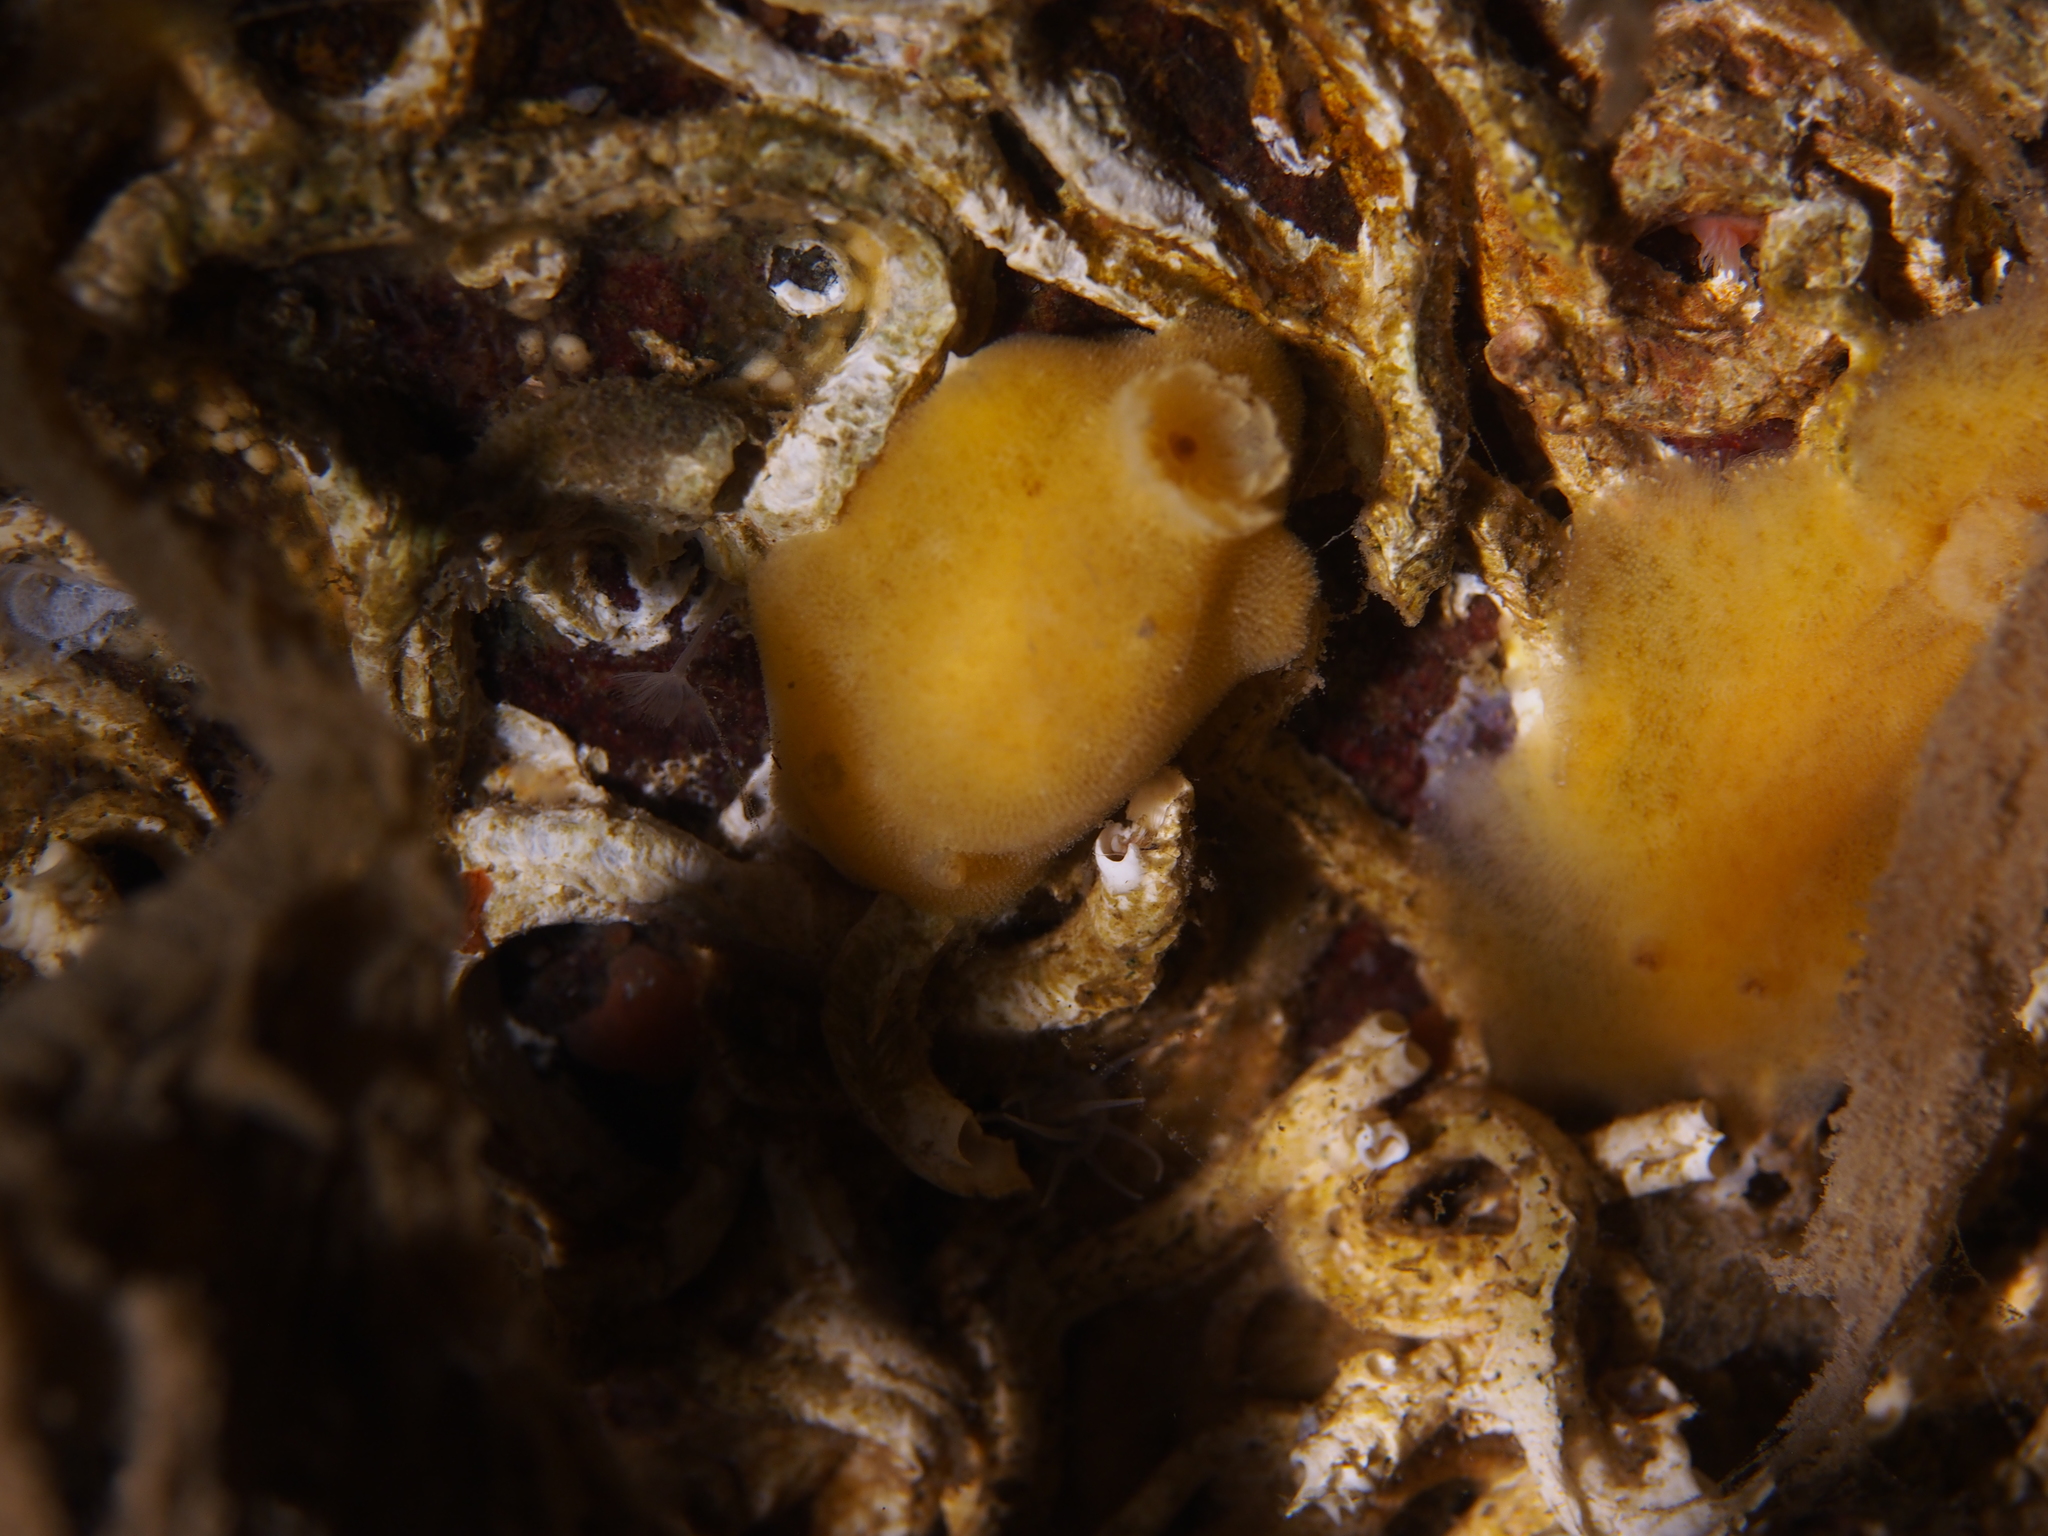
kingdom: Animalia
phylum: Mollusca
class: Gastropoda
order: Nudibranchia
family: Discodorididae
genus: Jorunna
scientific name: Jorunna tomentosa
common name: Grey sea slug
